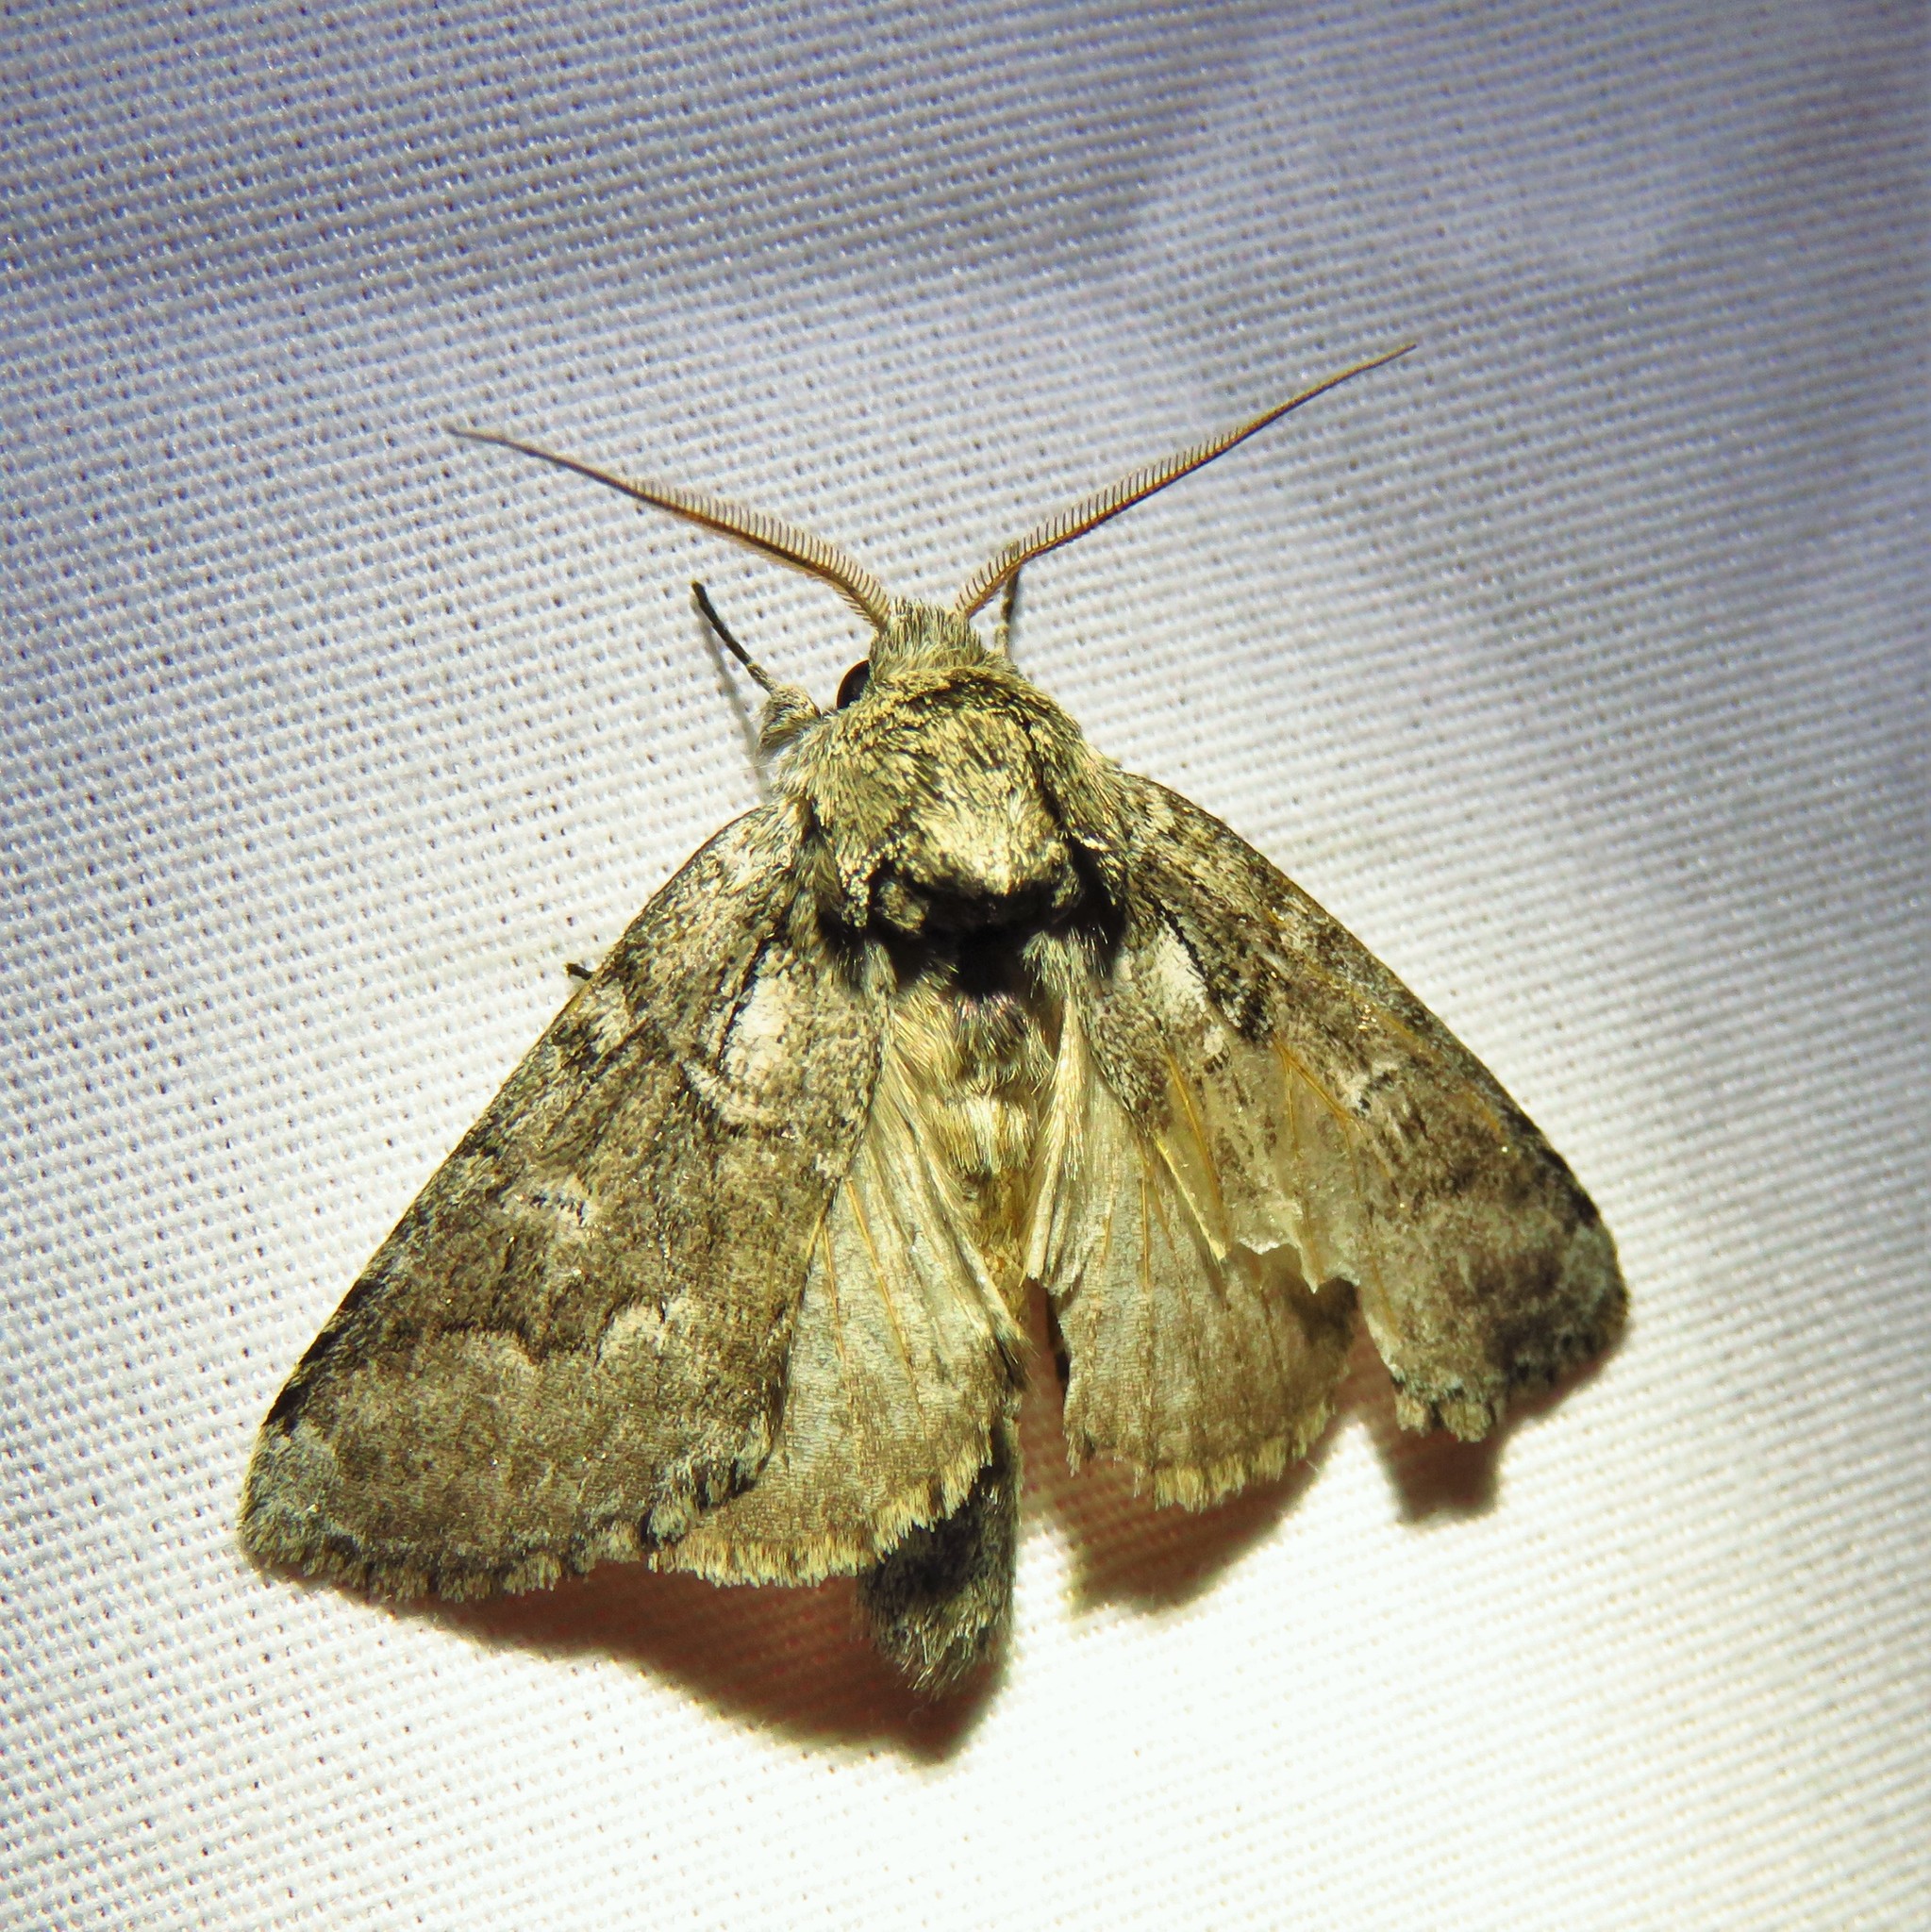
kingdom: Animalia
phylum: Arthropoda
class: Insecta
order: Lepidoptera
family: Notodontidae
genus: Lochmaeus
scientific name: Lochmaeus bilineata
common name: Double-lined prominent
